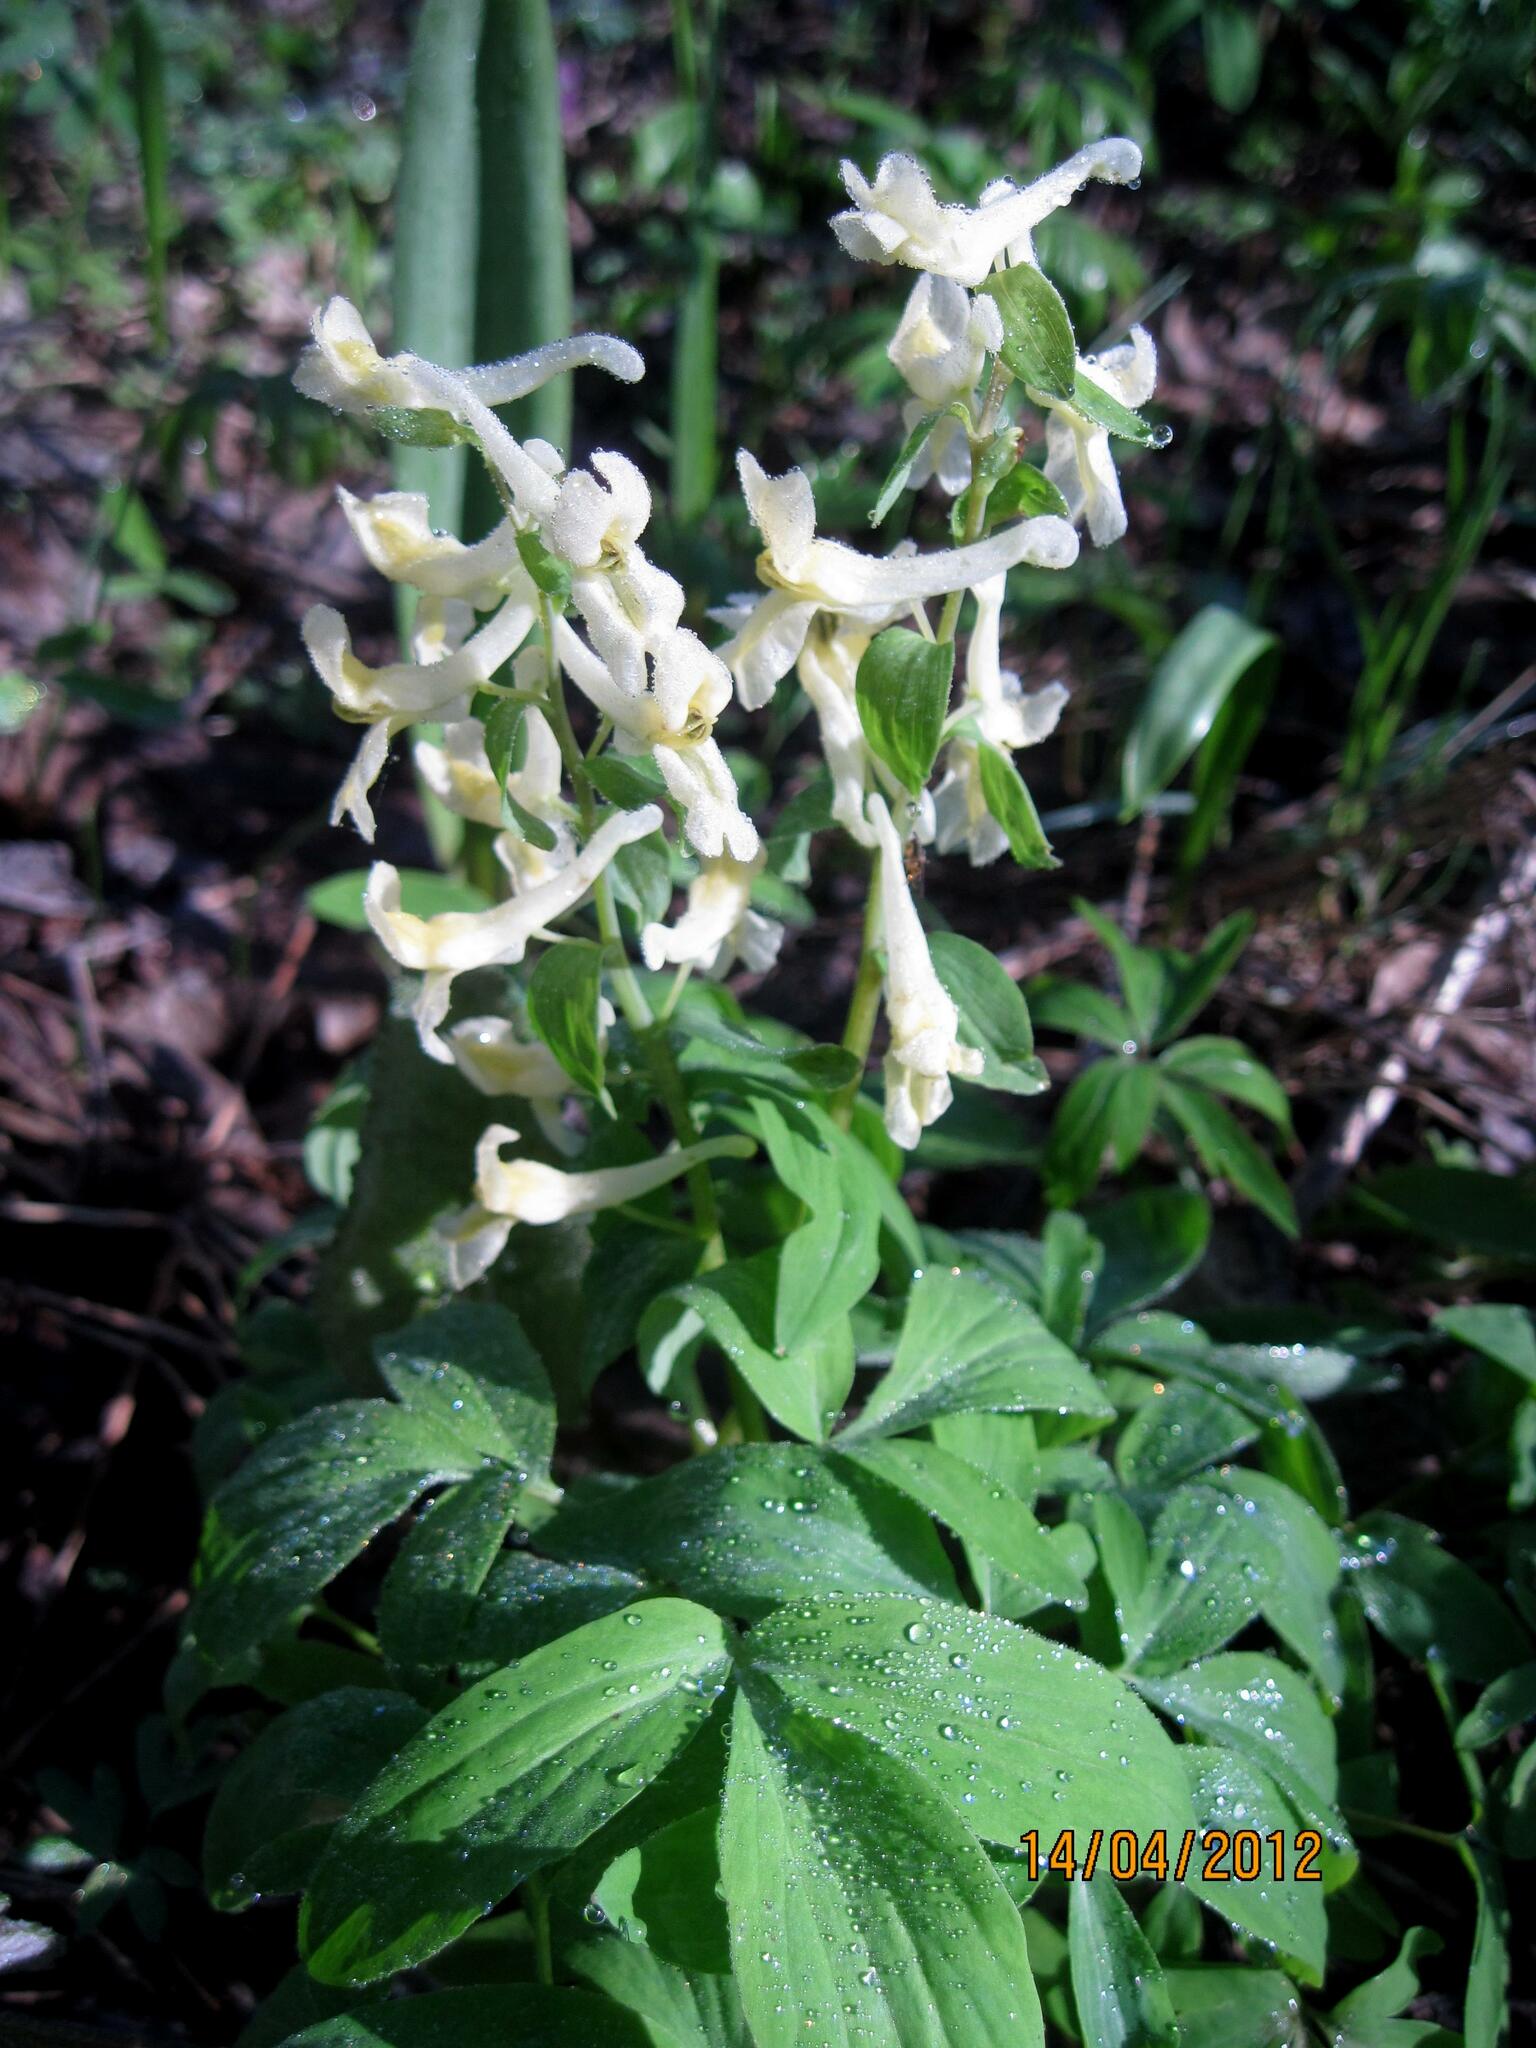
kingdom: Plantae
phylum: Tracheophyta
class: Magnoliopsida
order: Ranunculales
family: Papaveraceae
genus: Corydalis
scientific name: Corydalis cava
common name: Hollowroot
